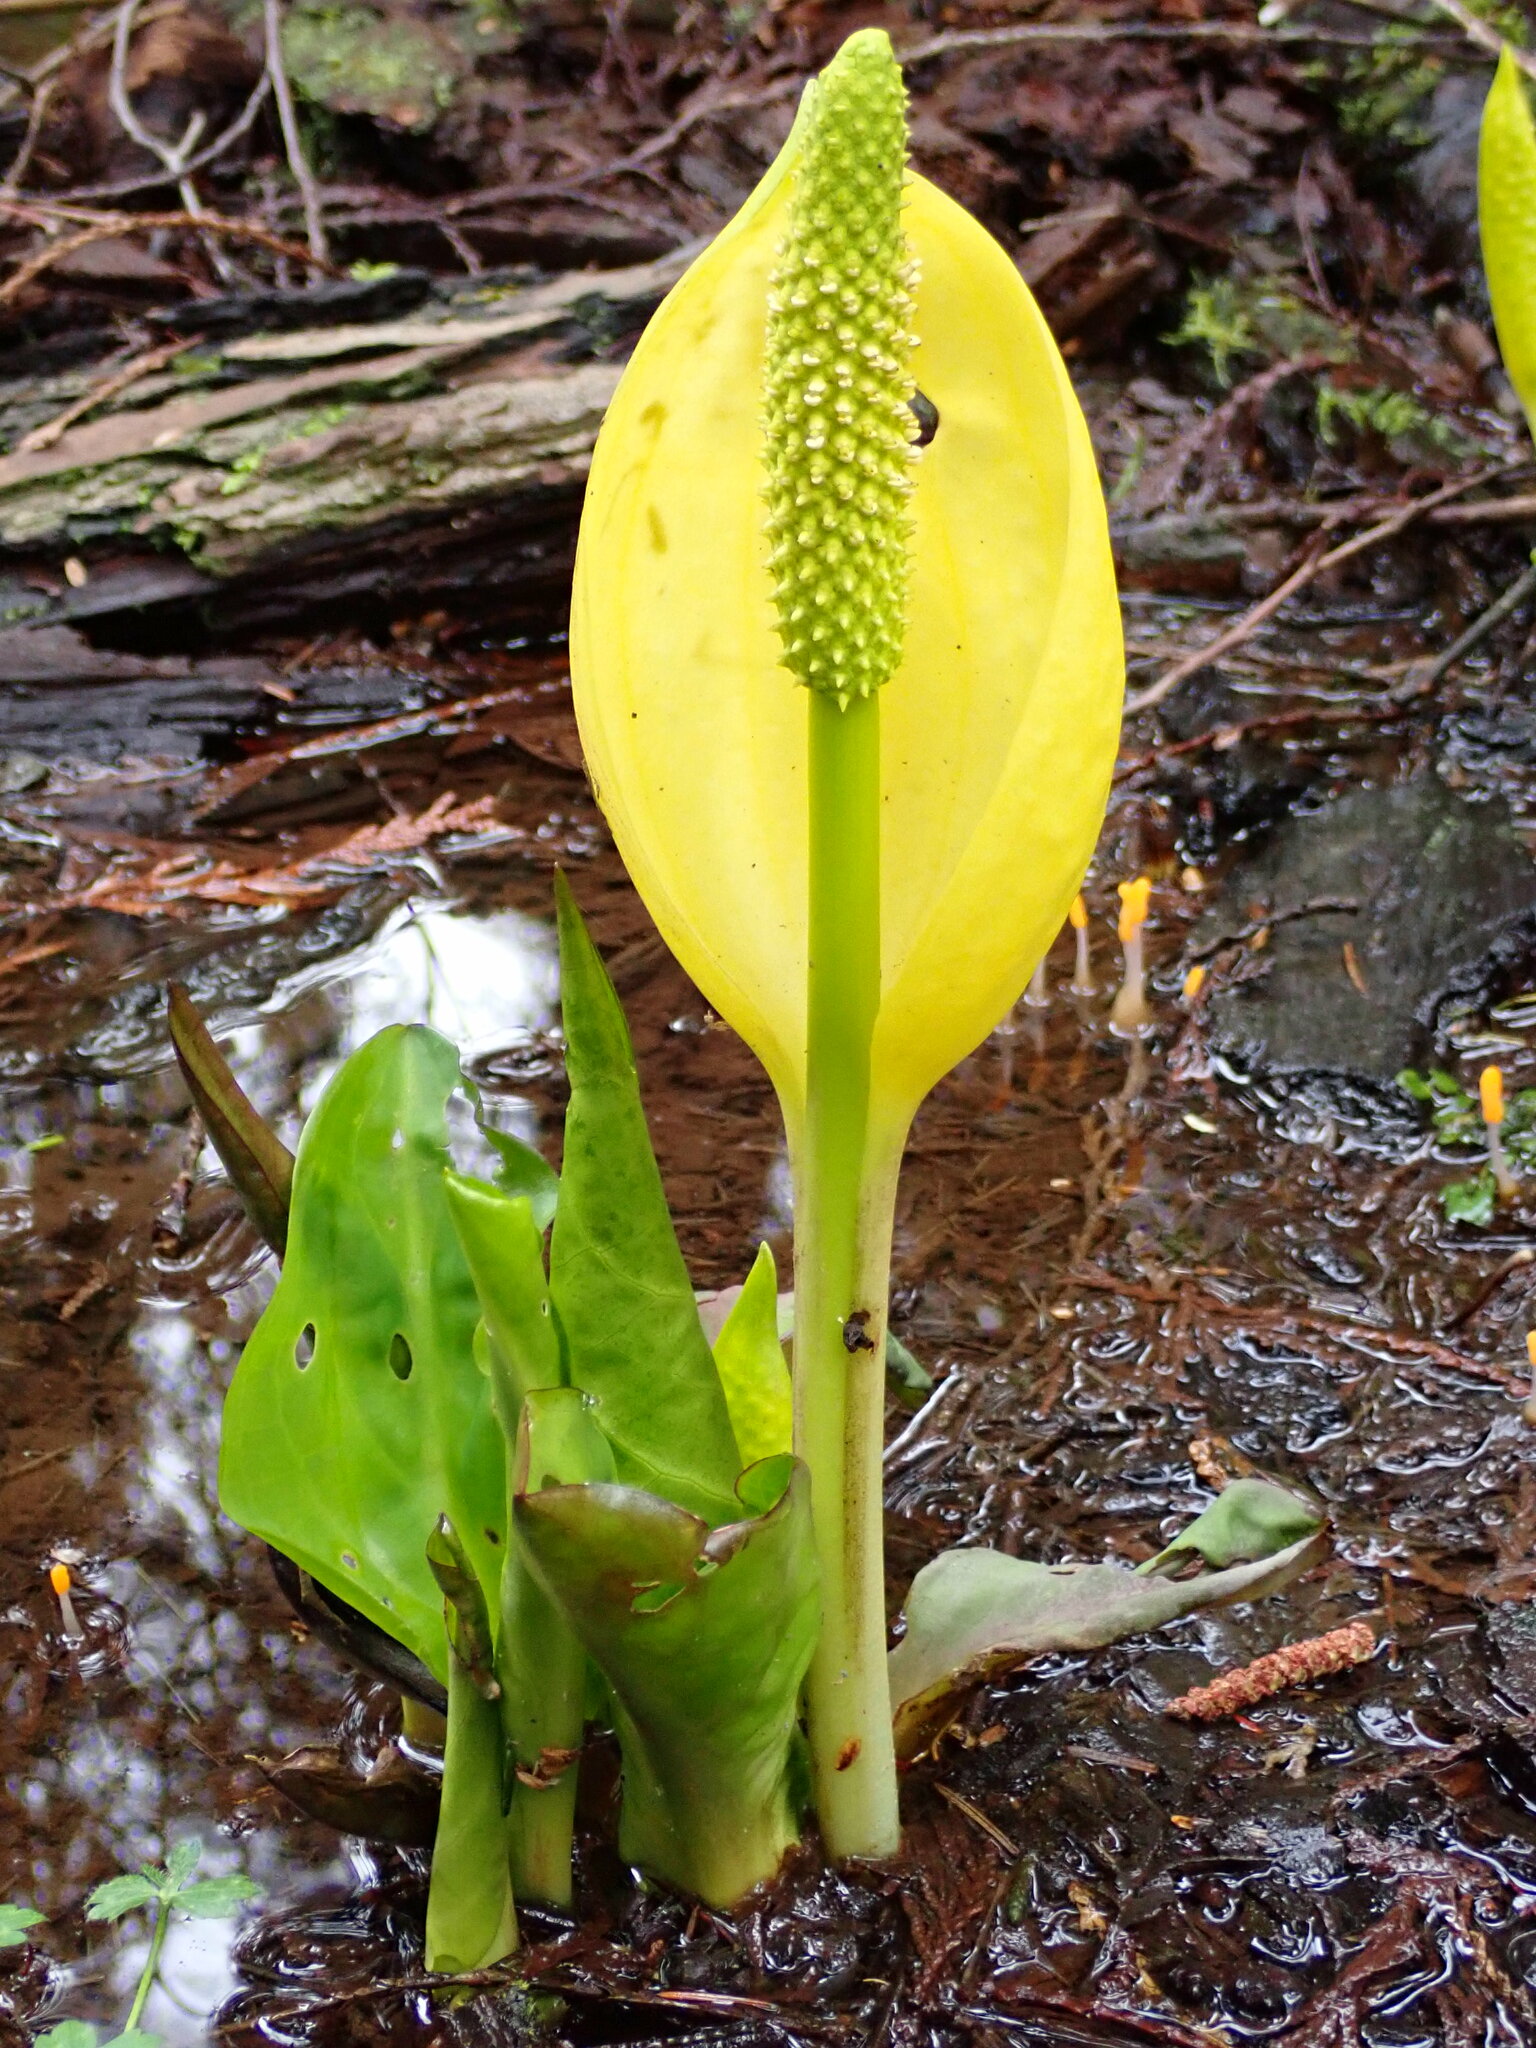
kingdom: Plantae
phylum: Tracheophyta
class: Liliopsida
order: Alismatales
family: Araceae
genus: Lysichiton
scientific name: Lysichiton americanus
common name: American skunk cabbage
